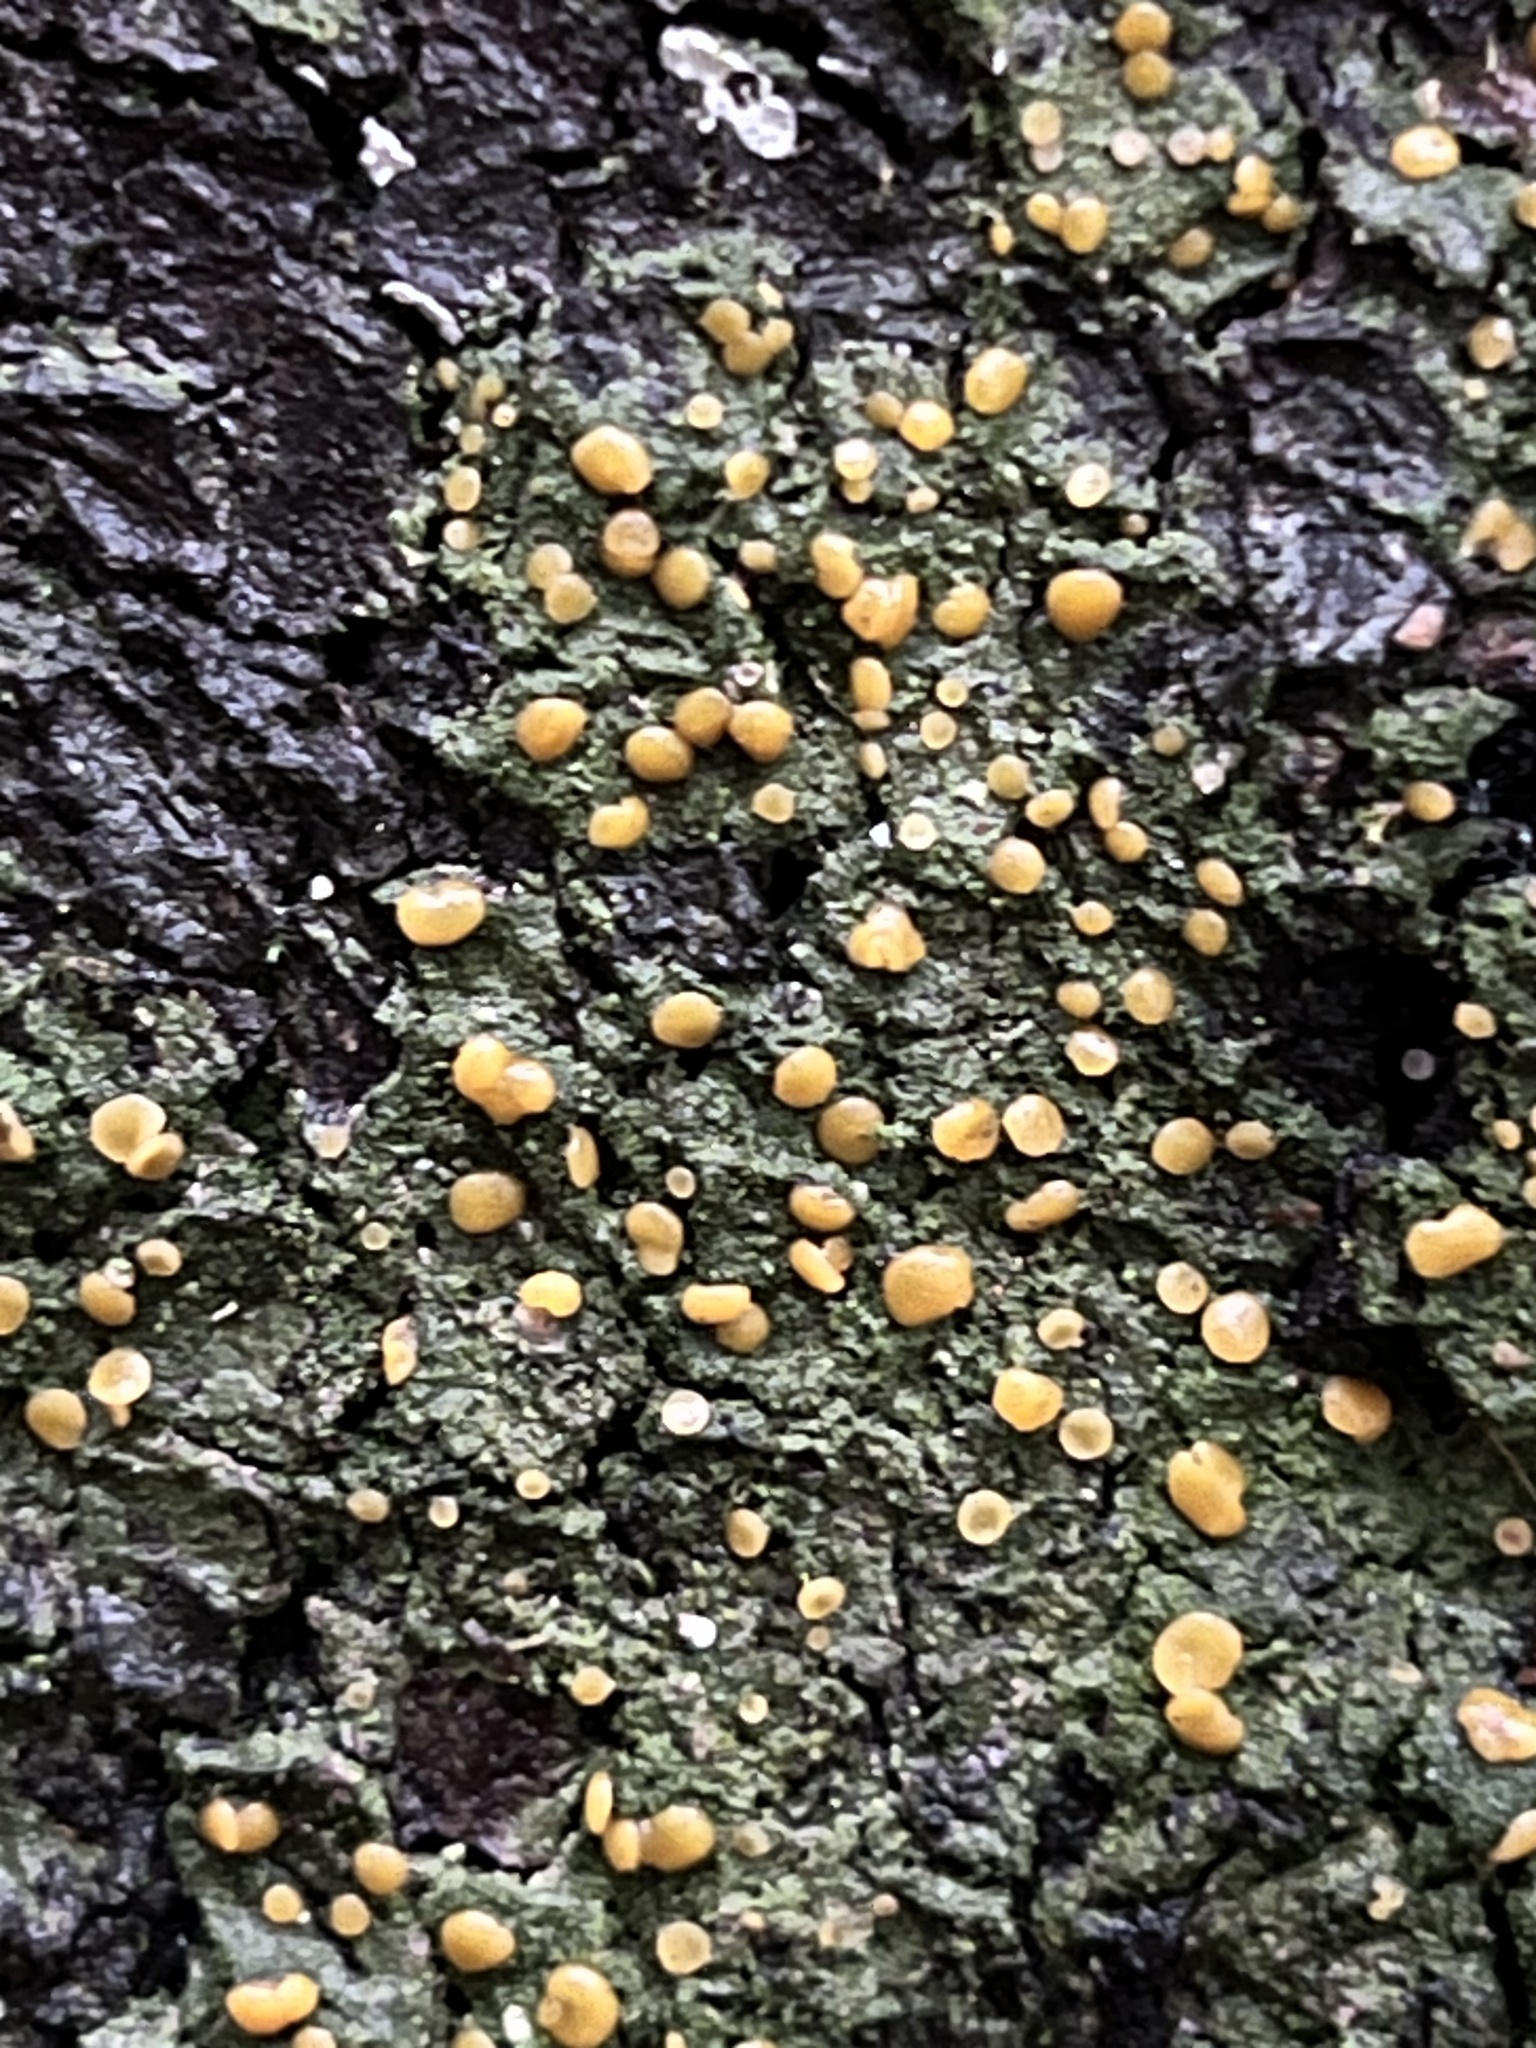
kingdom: Fungi
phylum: Ascomycota
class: Lecanoromycetes
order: Ostropales
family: Coenogoniaceae
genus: Coenogonium
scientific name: Coenogonium luteum
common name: Orange dimple lichen
